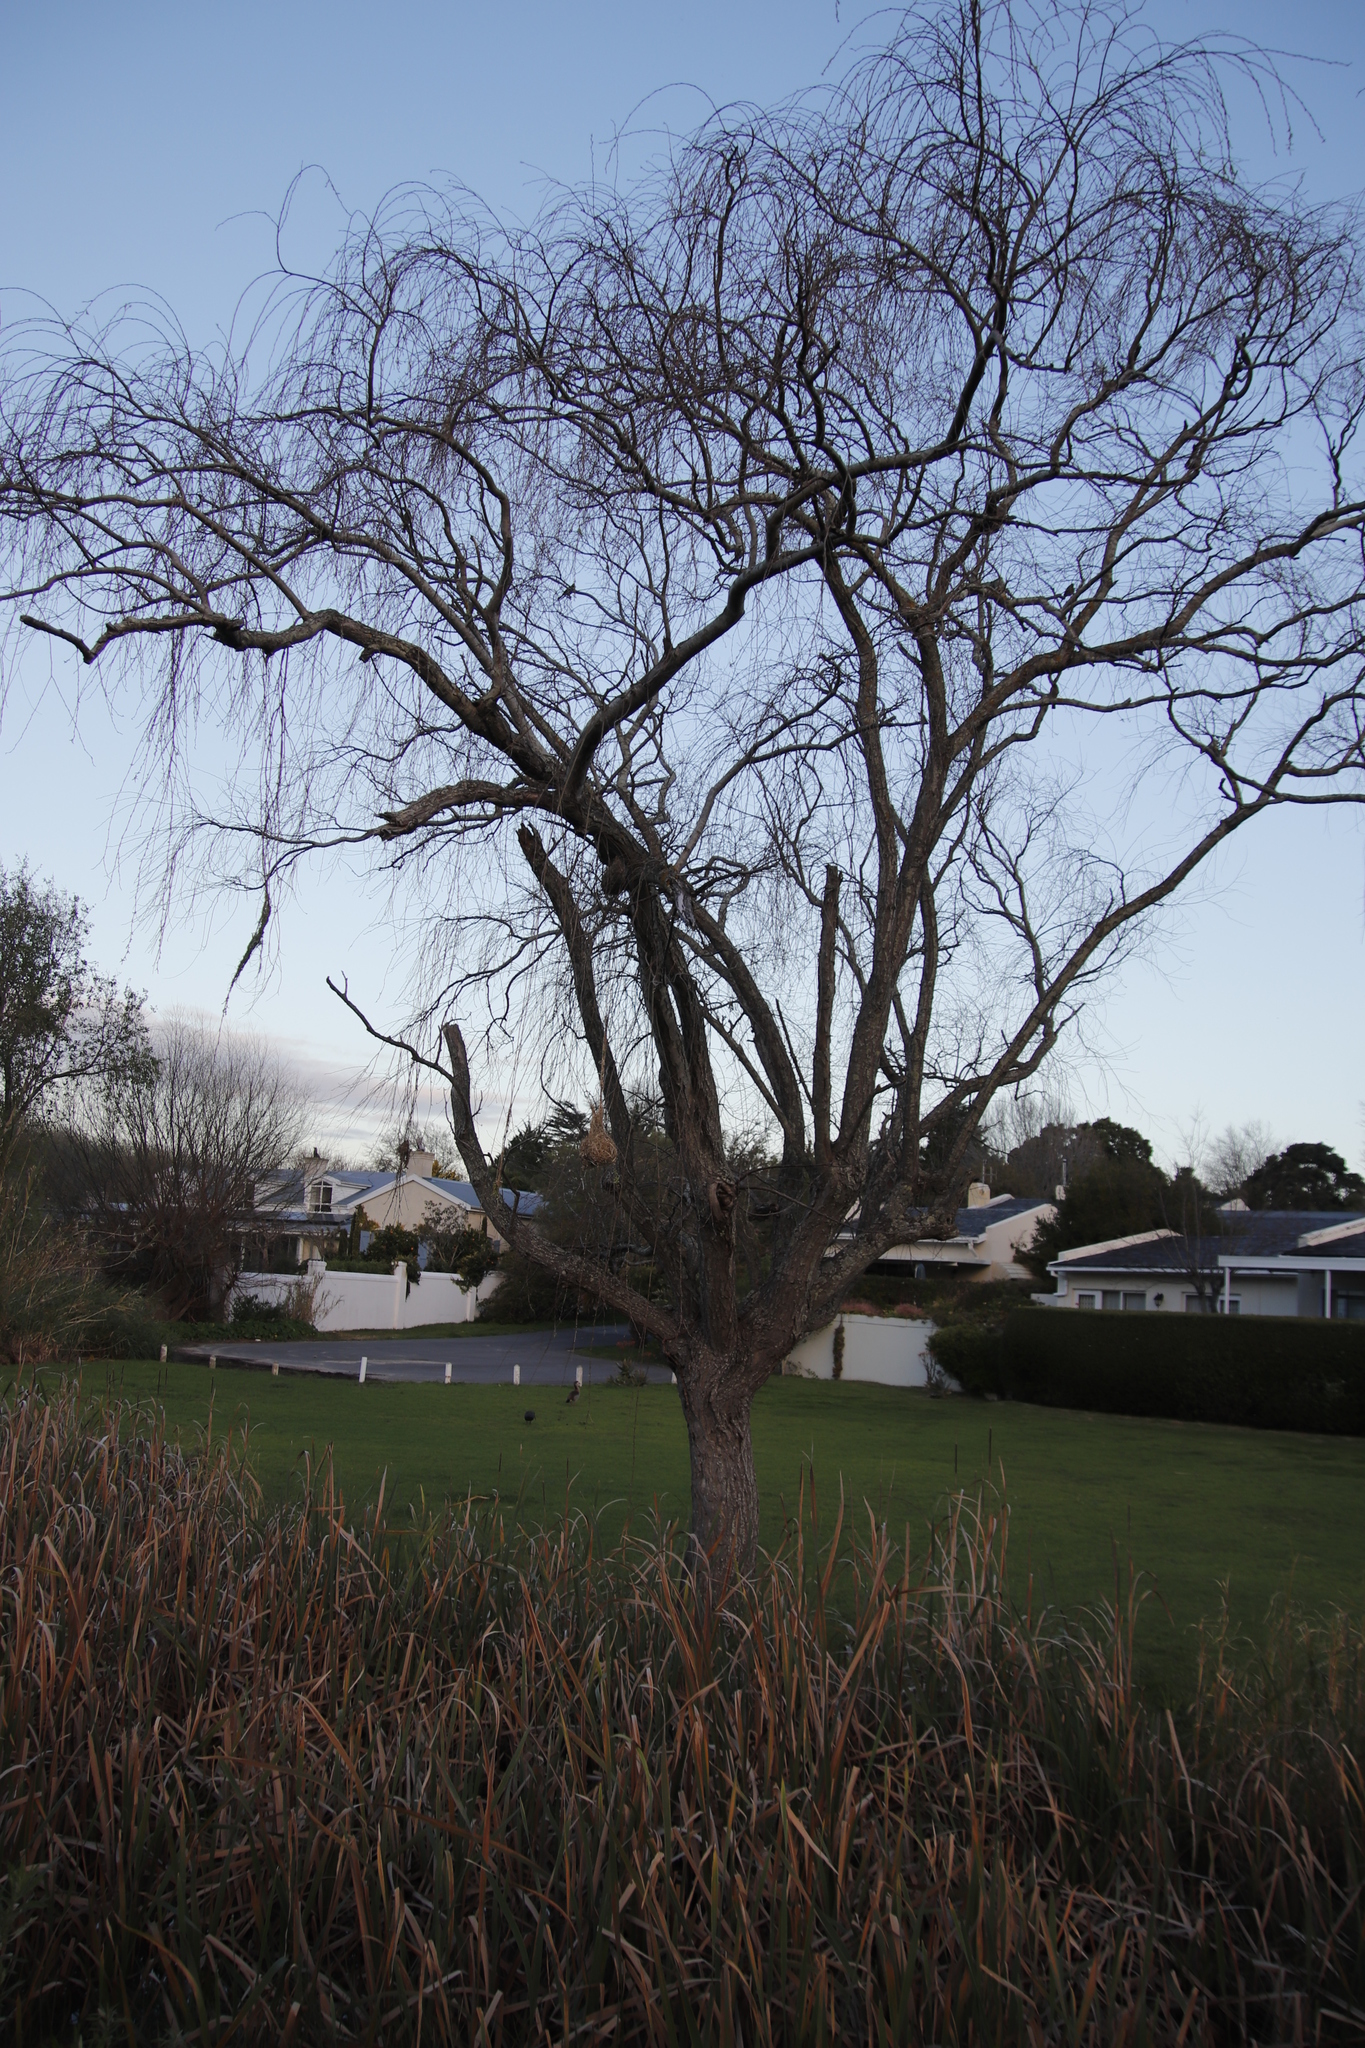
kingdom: Plantae
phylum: Tracheophyta
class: Magnoliopsida
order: Malpighiales
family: Salicaceae
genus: Salix
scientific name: Salix babylonica
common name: Weeping willow
